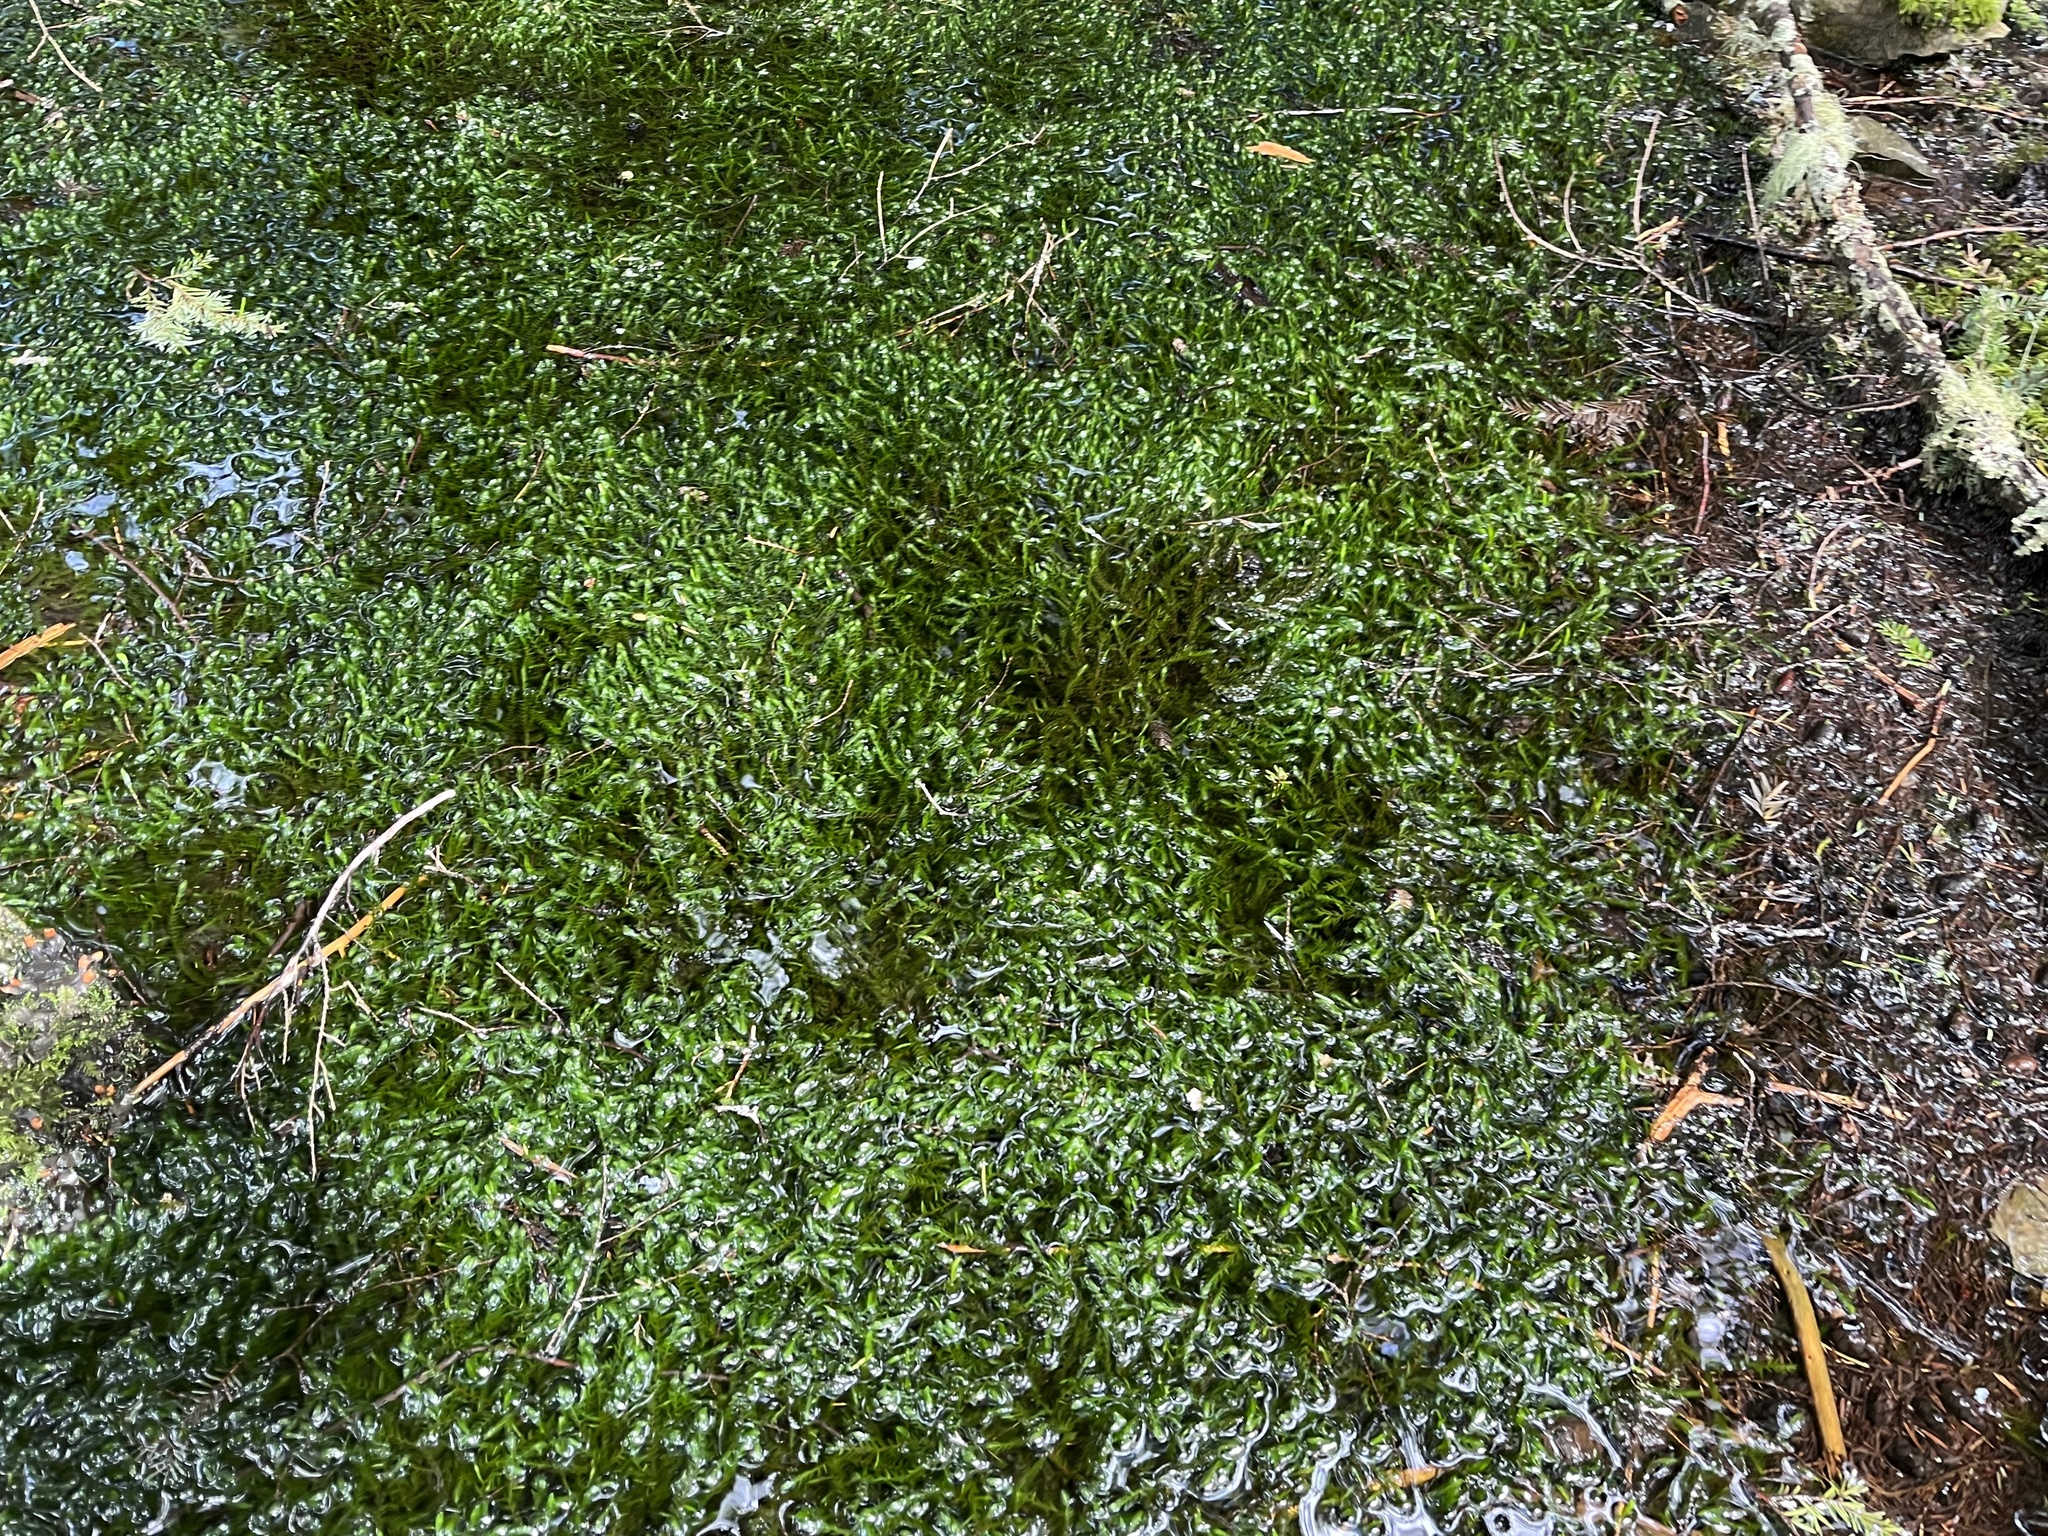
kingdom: Plantae
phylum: Bryophyta
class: Bryopsida
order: Hypnales
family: Fontinalaceae
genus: Fontinalis
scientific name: Fontinalis antipyretica
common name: Greater water-moss
